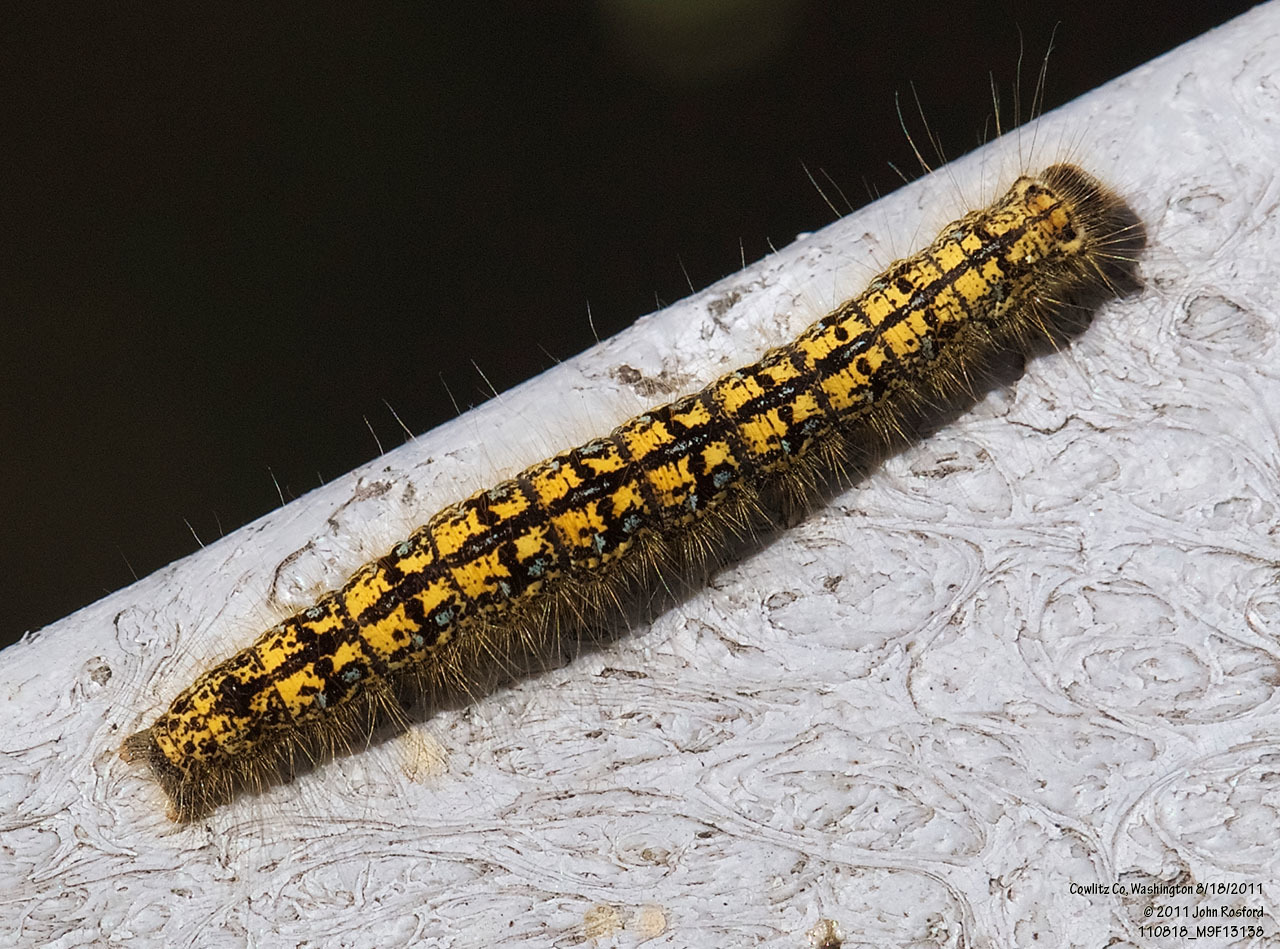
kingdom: Animalia
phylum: Arthropoda
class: Insecta
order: Lepidoptera
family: Lasiocampidae
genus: Malacosoma
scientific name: Malacosoma californica
